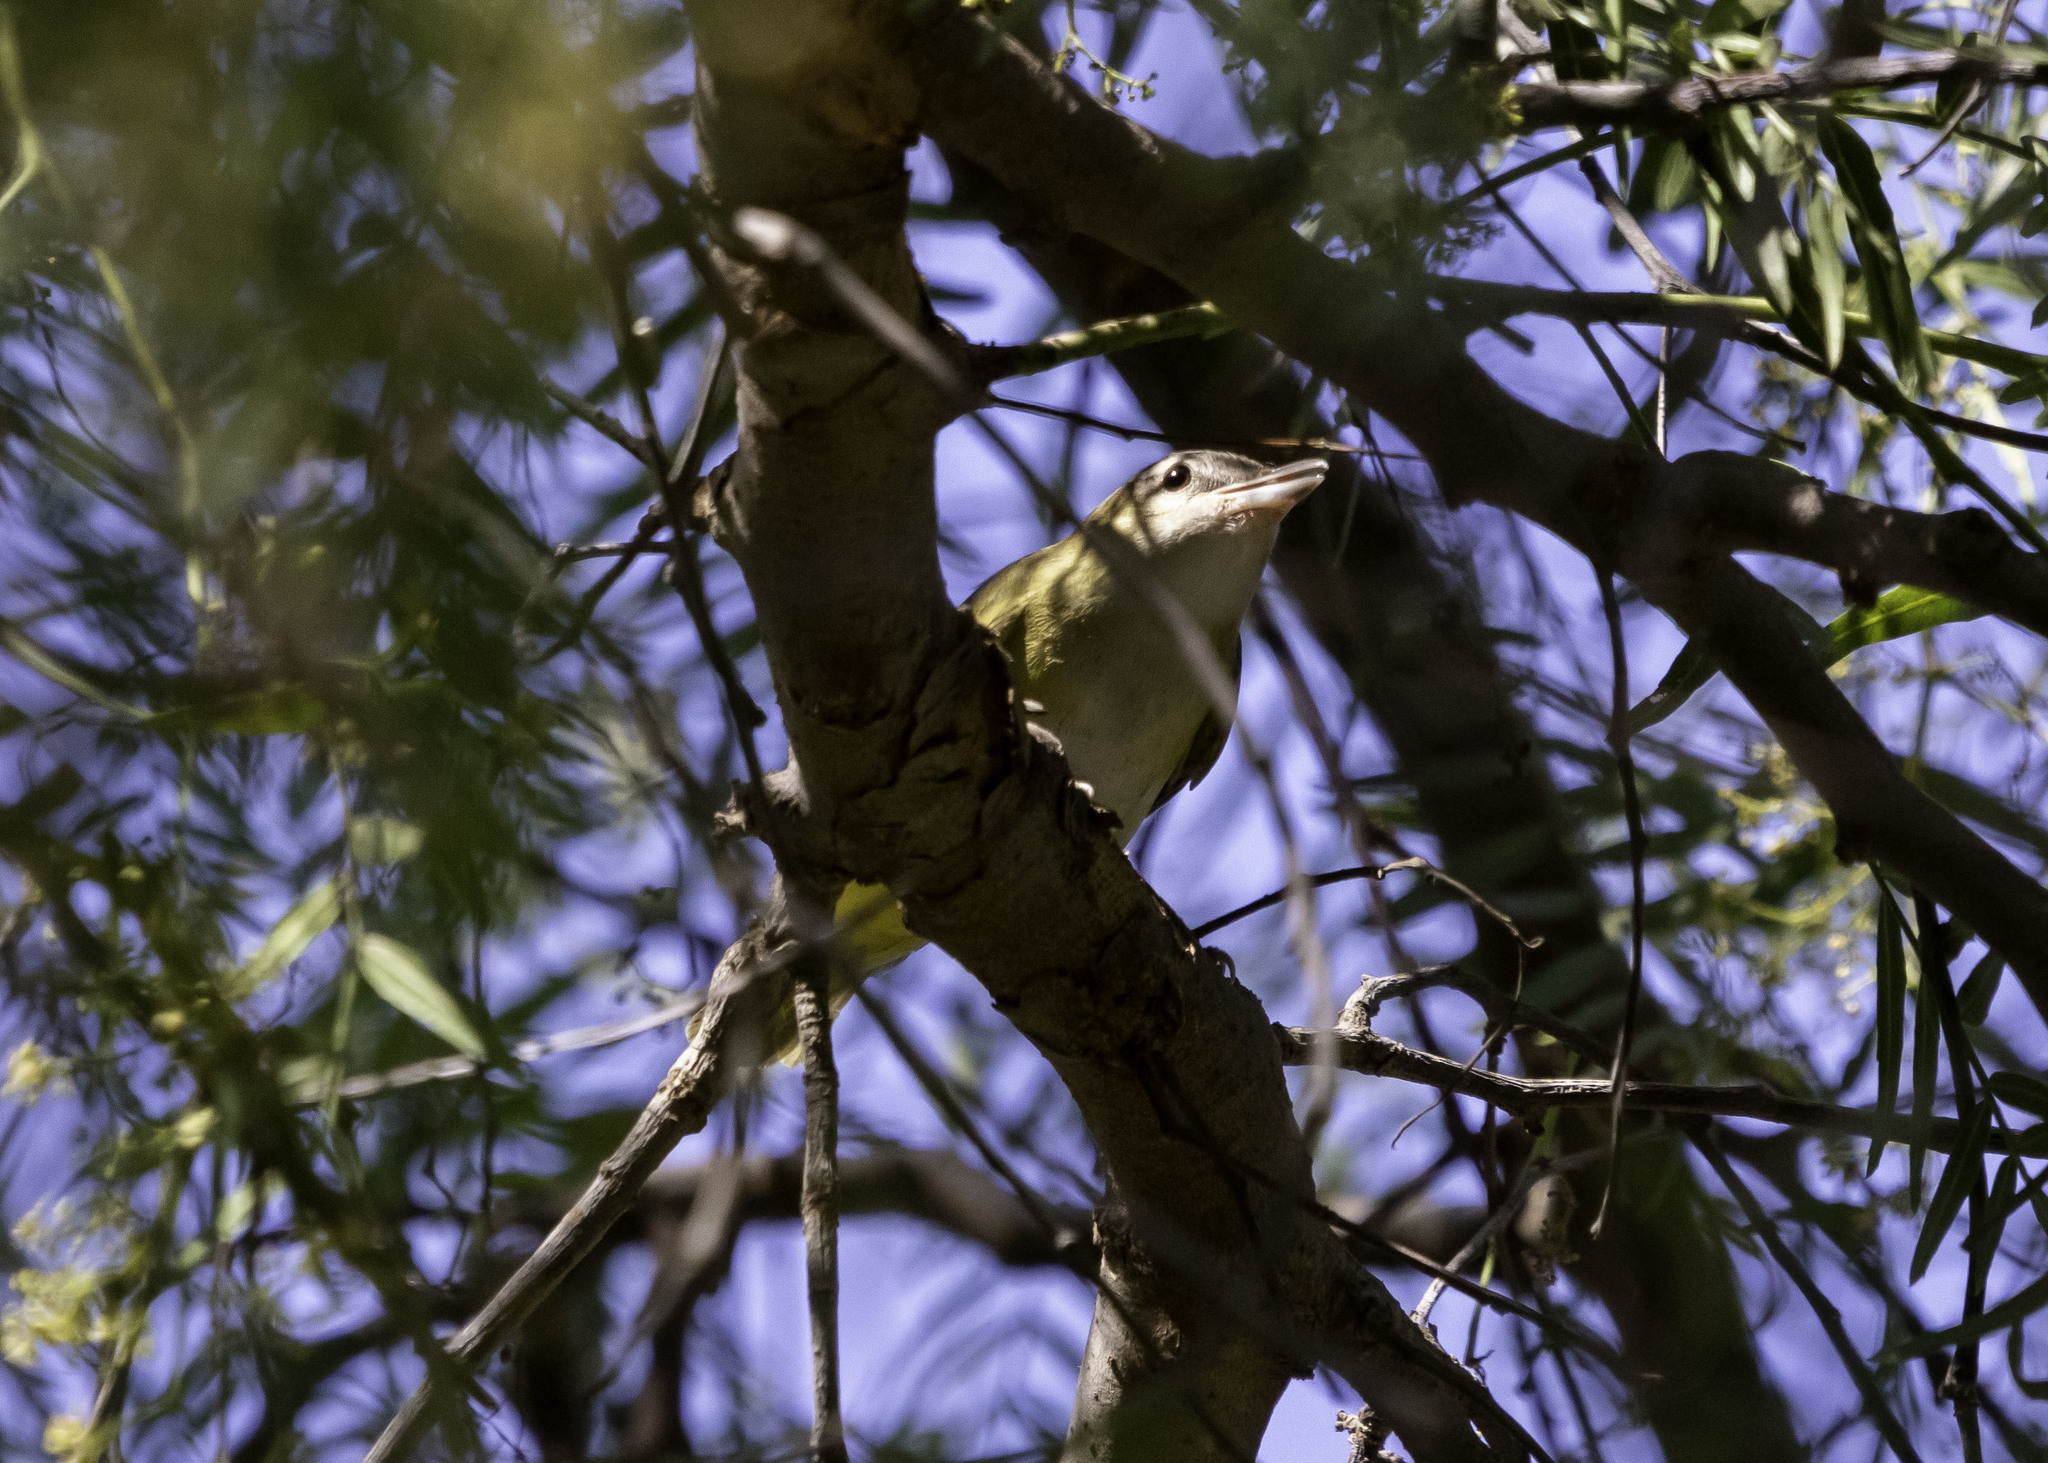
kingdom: Animalia
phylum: Chordata
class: Aves
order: Passeriformes
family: Vireonidae
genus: Vireo
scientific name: Vireo flavoviridis
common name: Yellow-green vireo
